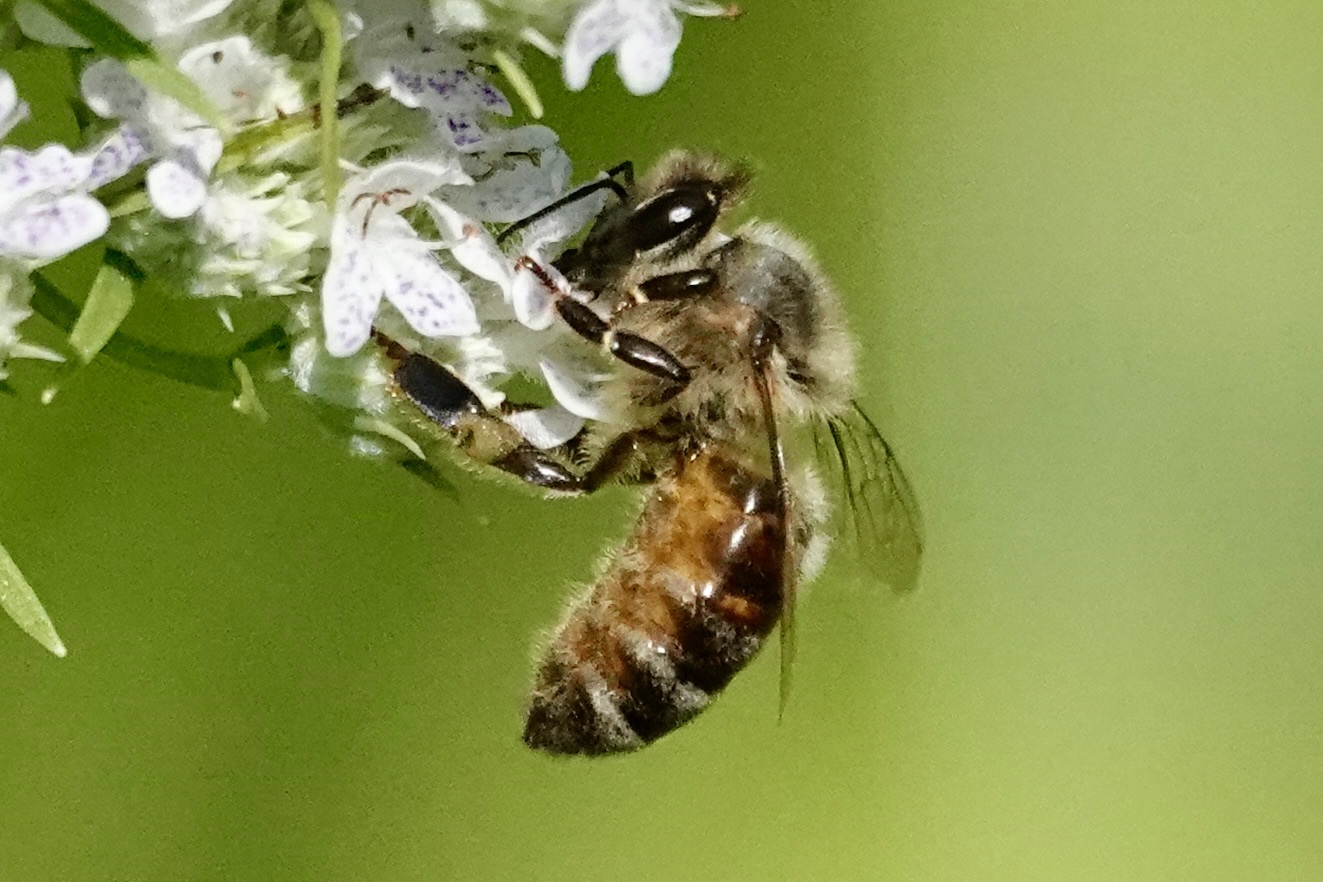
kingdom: Animalia
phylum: Arthropoda
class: Insecta
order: Hymenoptera
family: Apidae
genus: Apis
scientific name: Apis mellifera
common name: Honey bee
